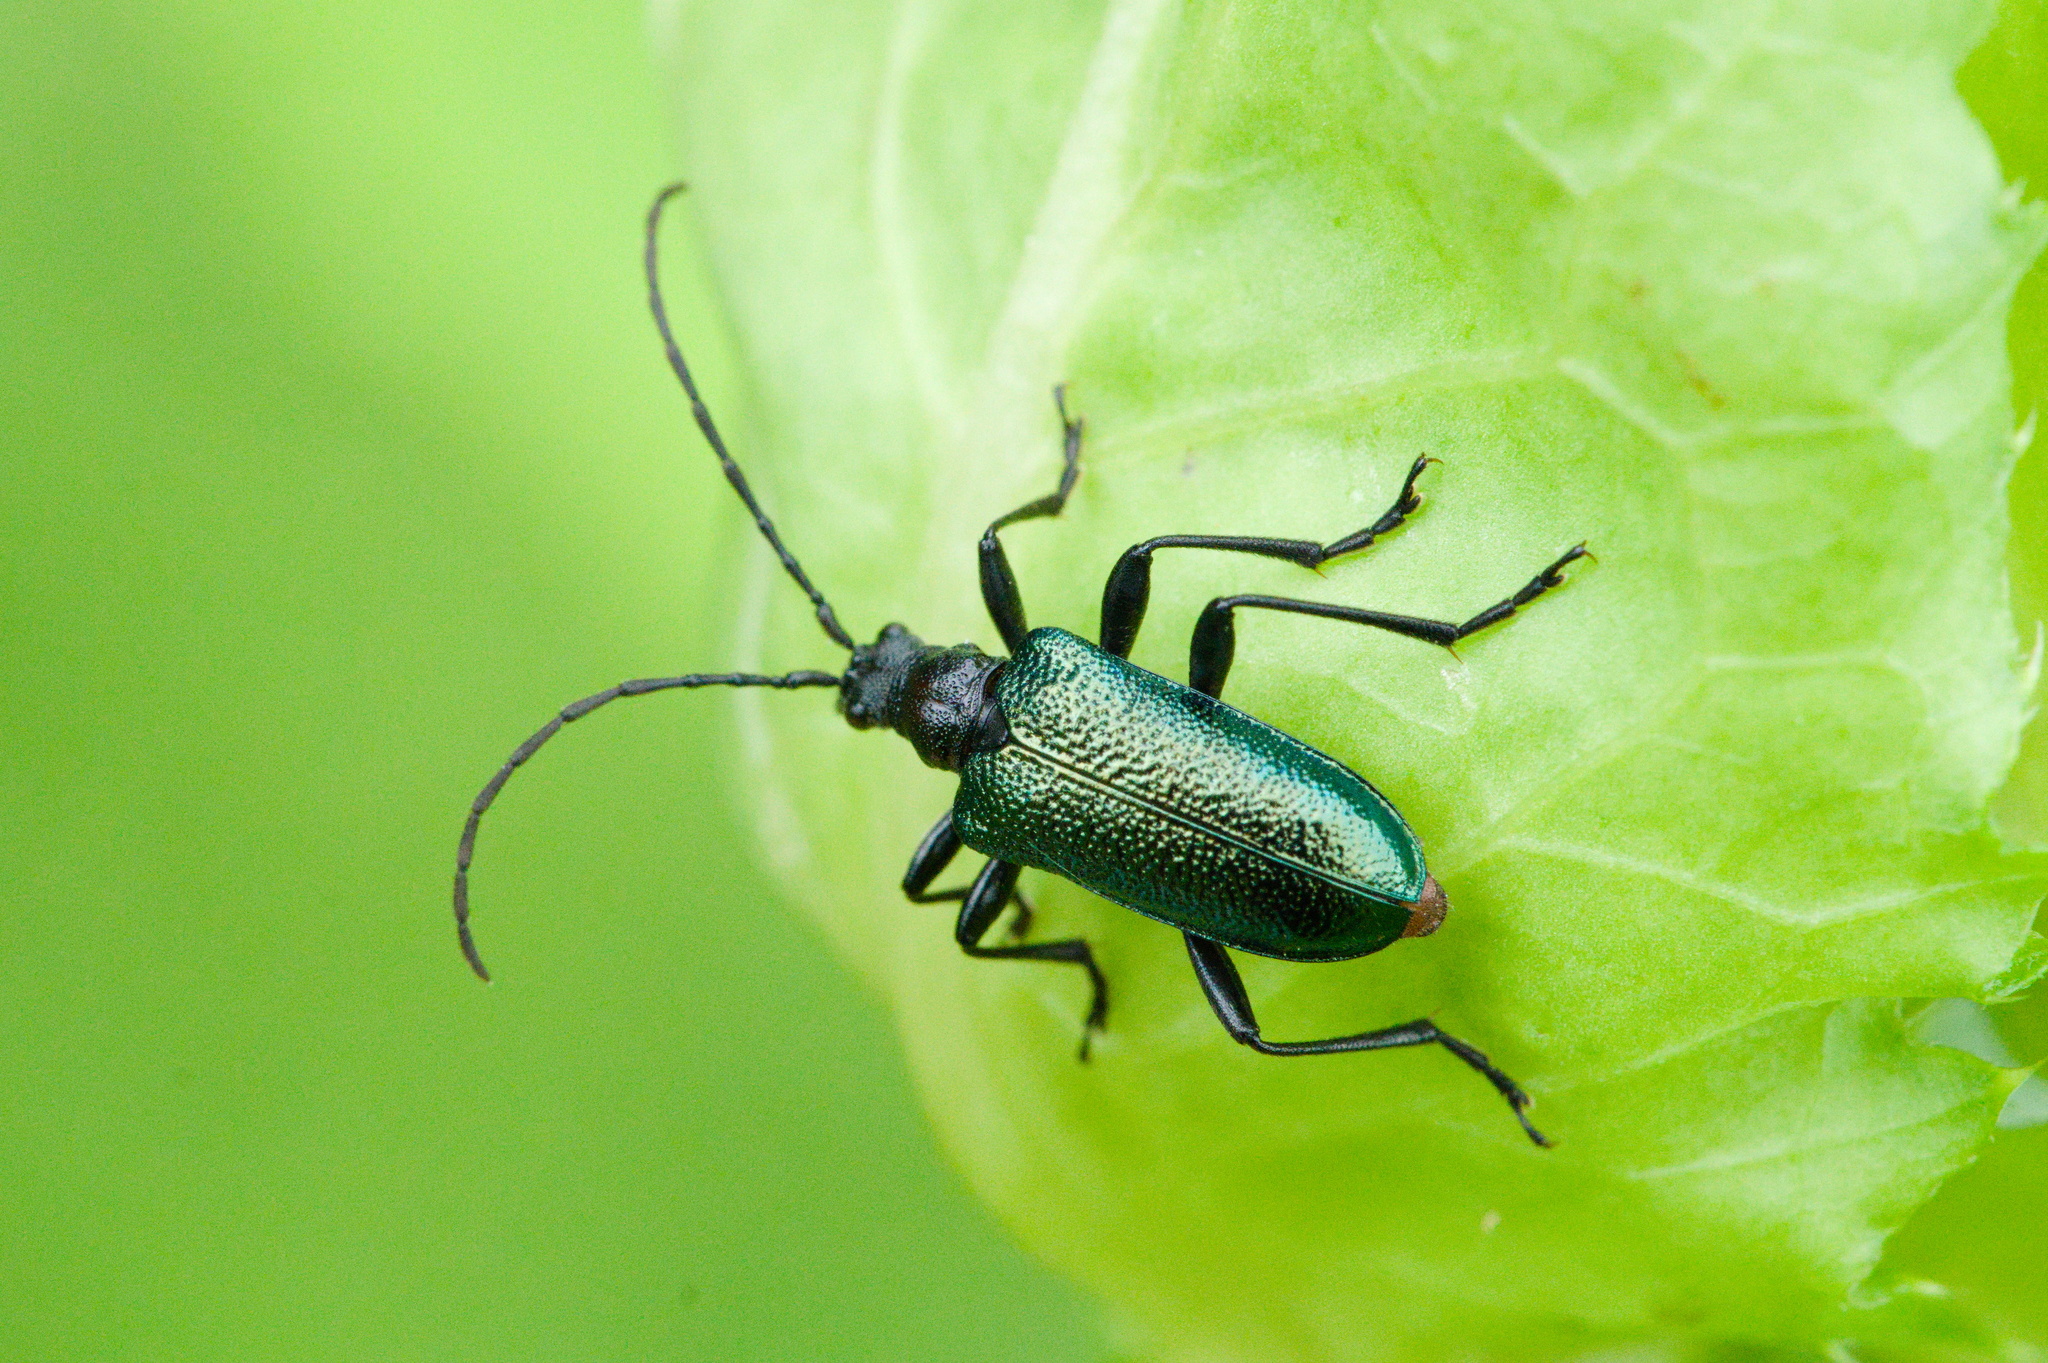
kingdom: Animalia
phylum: Arthropoda
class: Insecta
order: Coleoptera
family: Cerambycidae
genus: Gaurotes
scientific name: Gaurotes virginea
